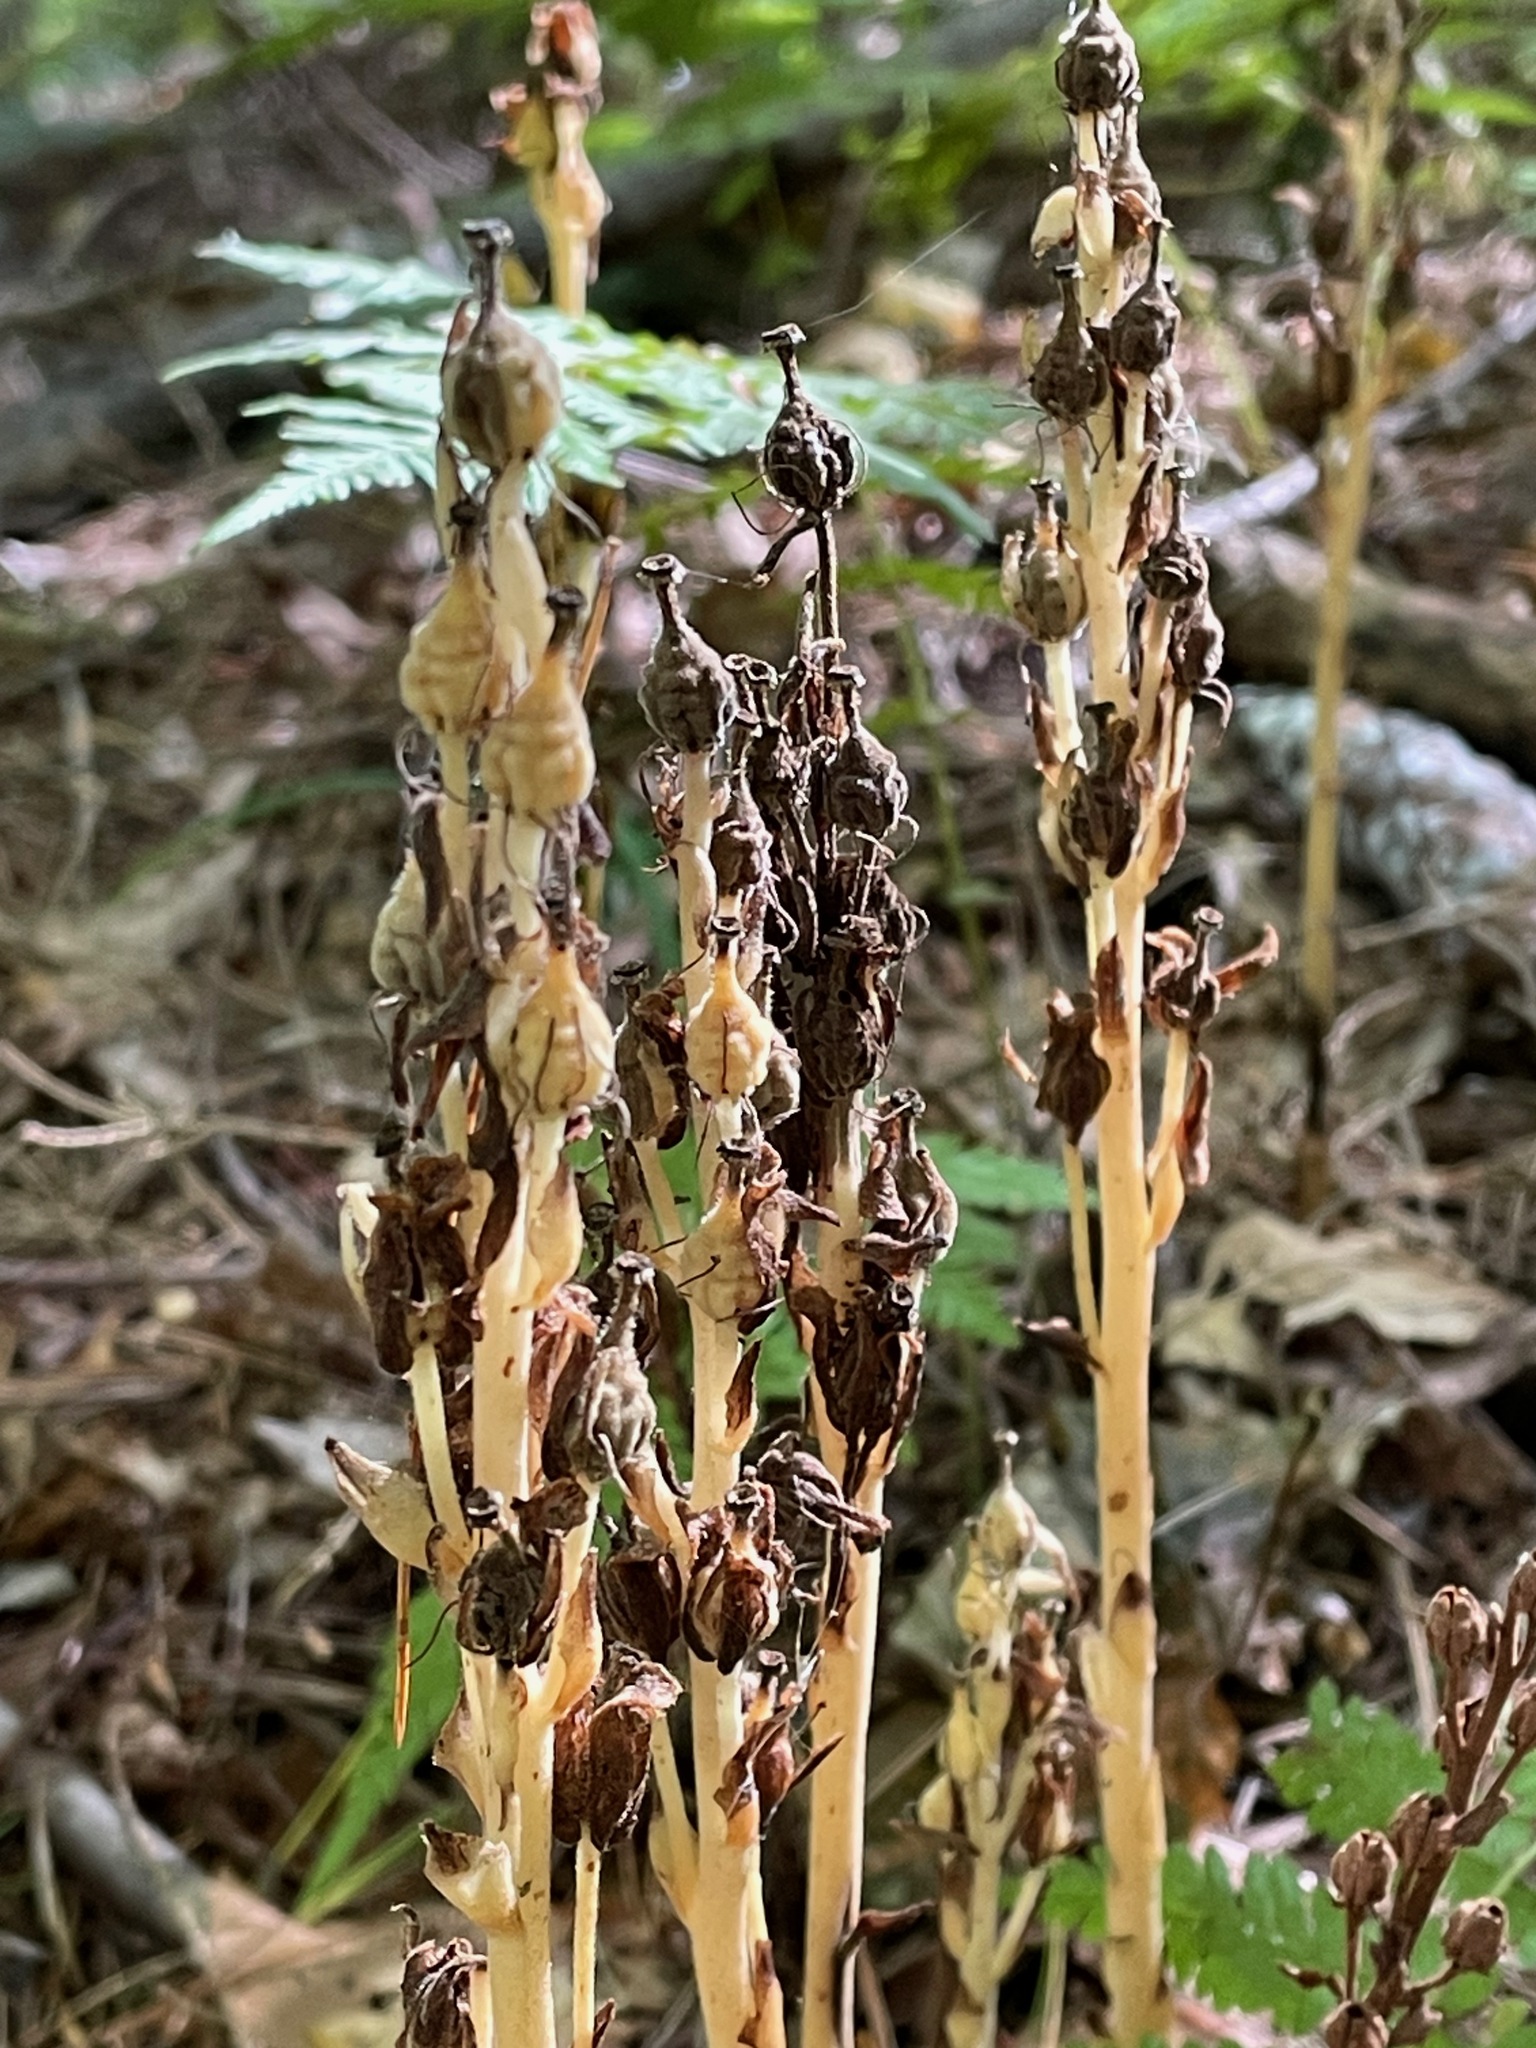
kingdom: Plantae
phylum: Tracheophyta
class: Magnoliopsida
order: Ericales
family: Ericaceae
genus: Hypopitys
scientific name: Hypopitys monotropa
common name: Yellow bird's-nest
